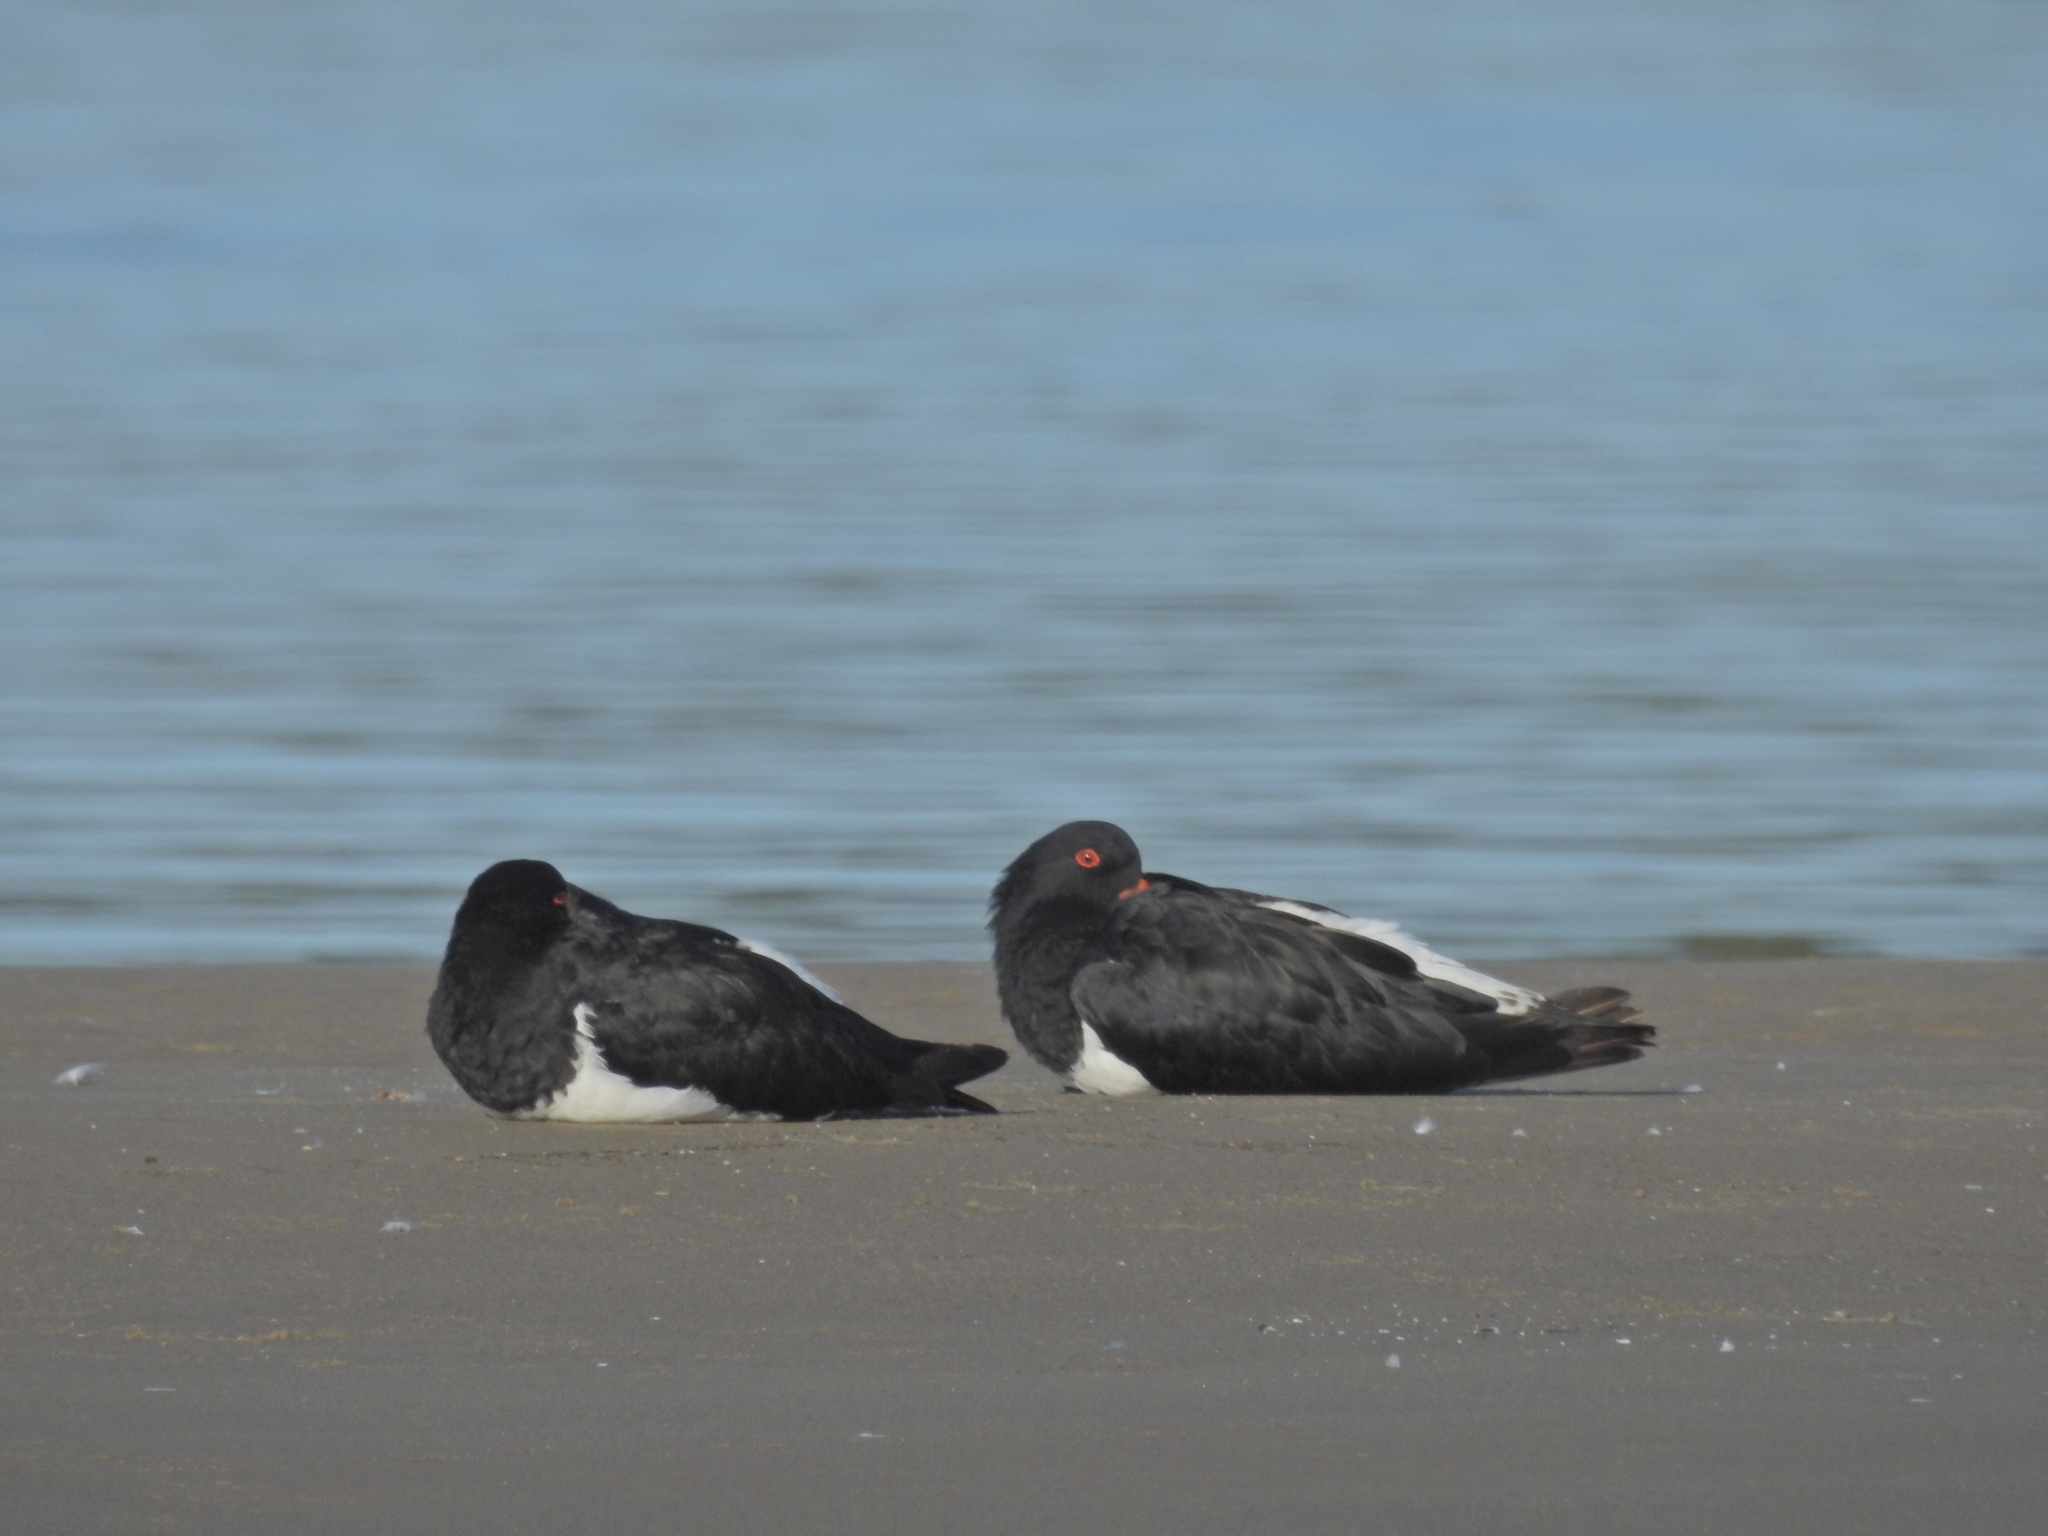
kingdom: Animalia
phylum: Chordata
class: Aves
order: Charadriiformes
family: Haematopodidae
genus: Haematopus
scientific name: Haematopus longirostris
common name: Pied oystercatcher
